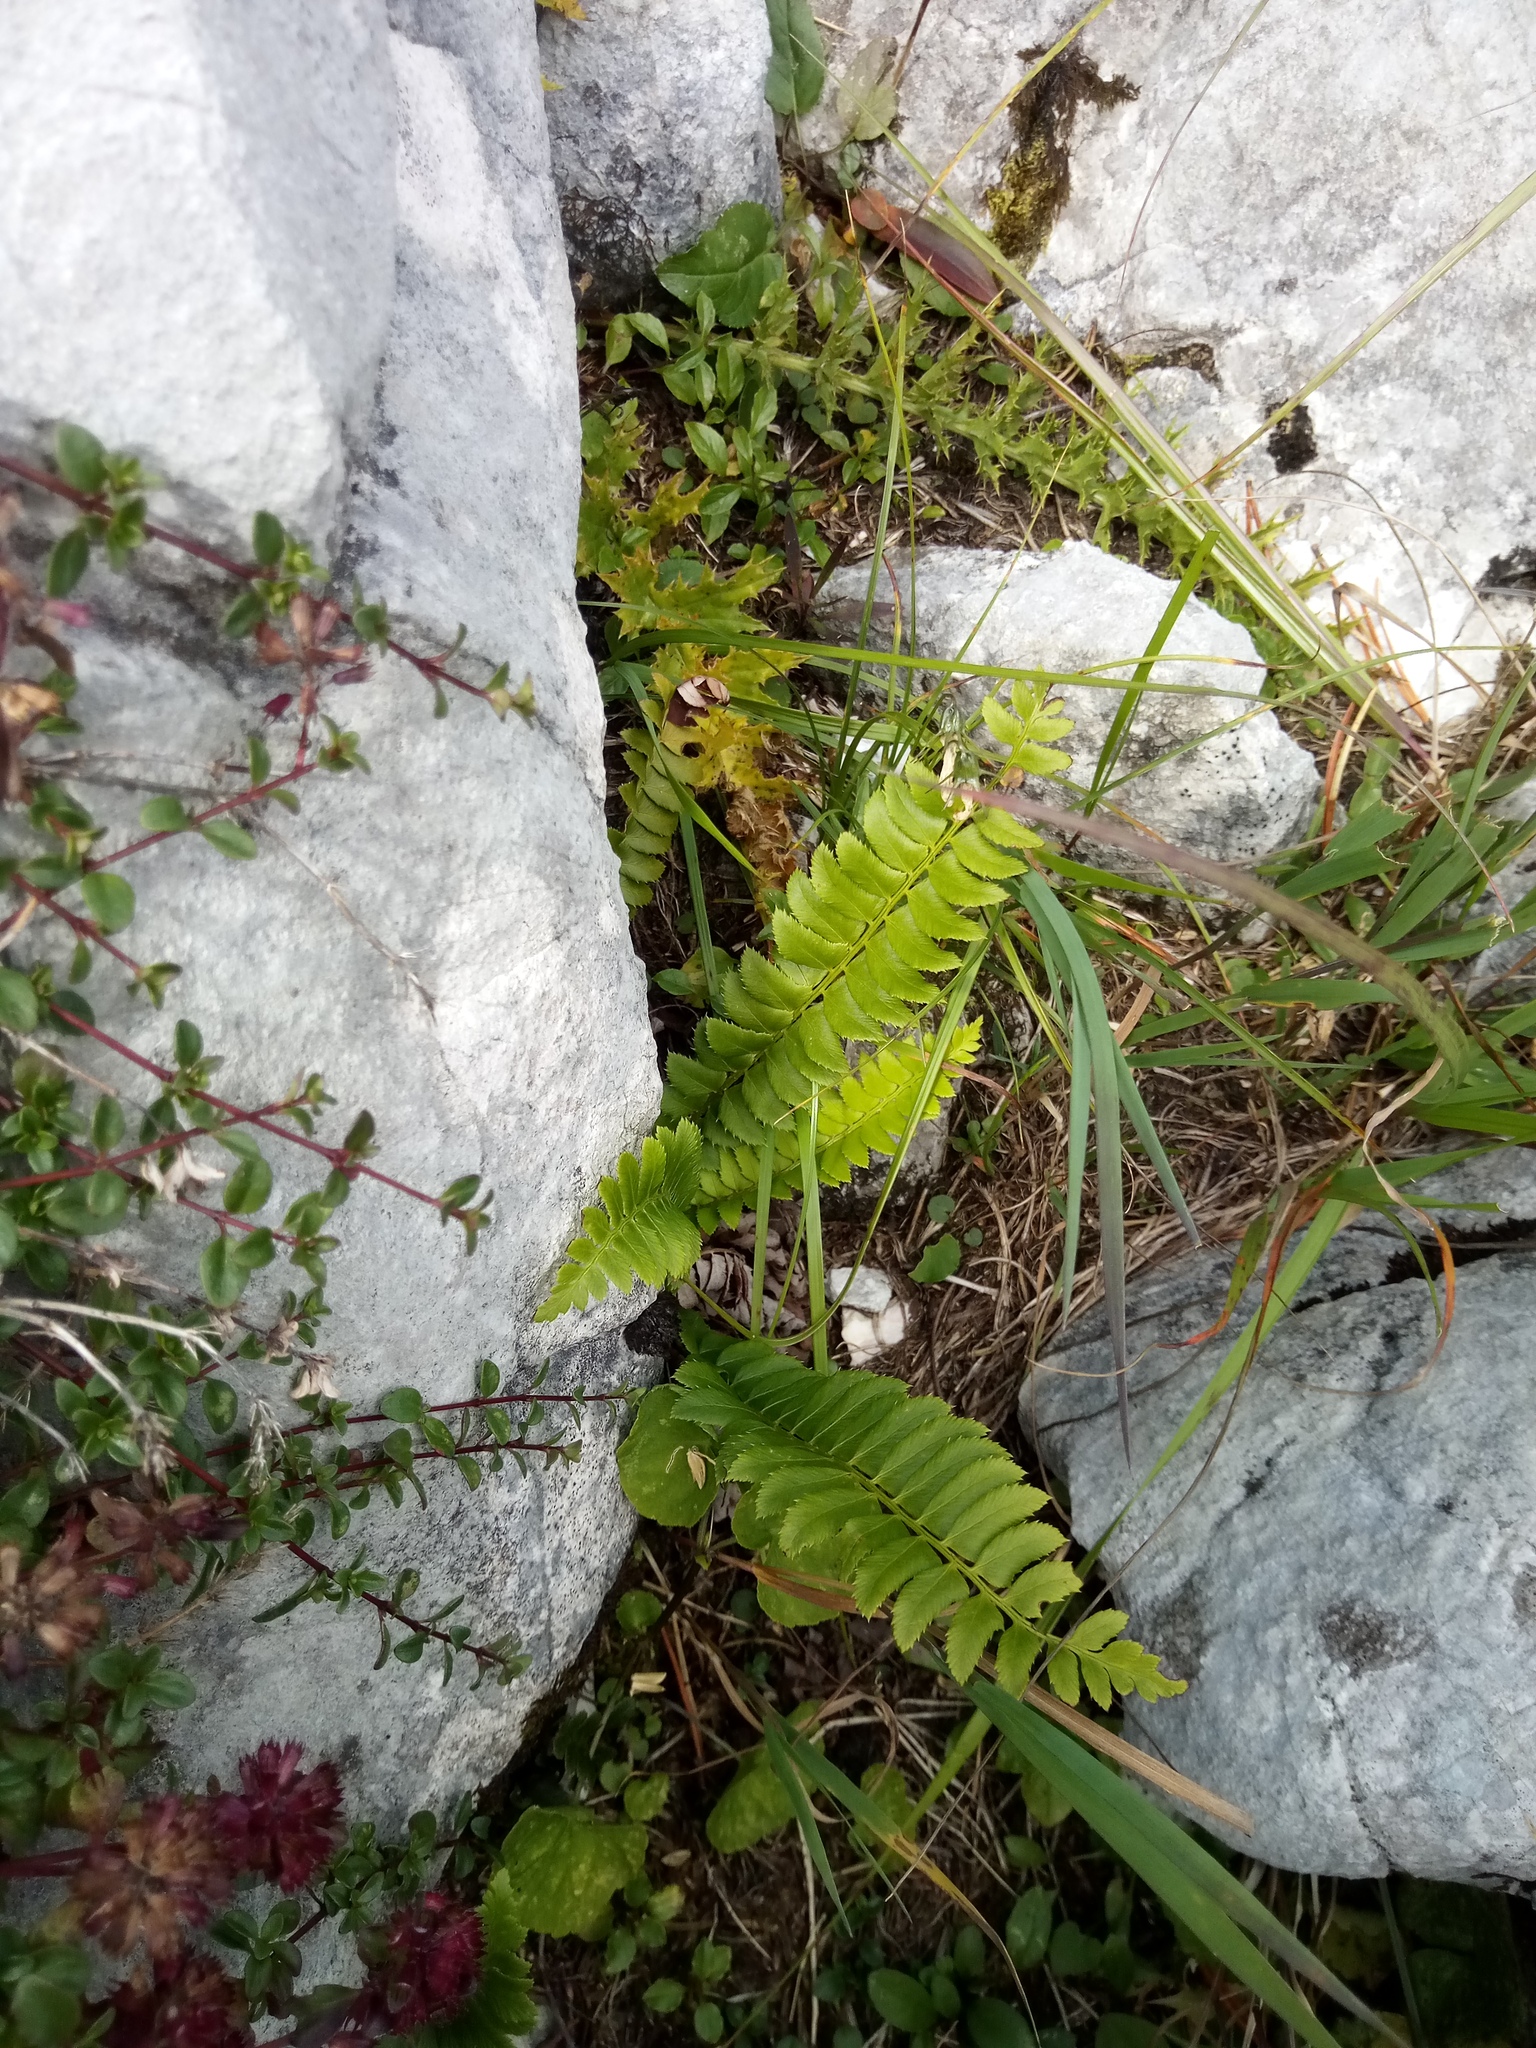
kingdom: Plantae
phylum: Tracheophyta
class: Polypodiopsida
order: Polypodiales
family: Dryopteridaceae
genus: Polystichum
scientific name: Polystichum lonchitis
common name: Holly fern
